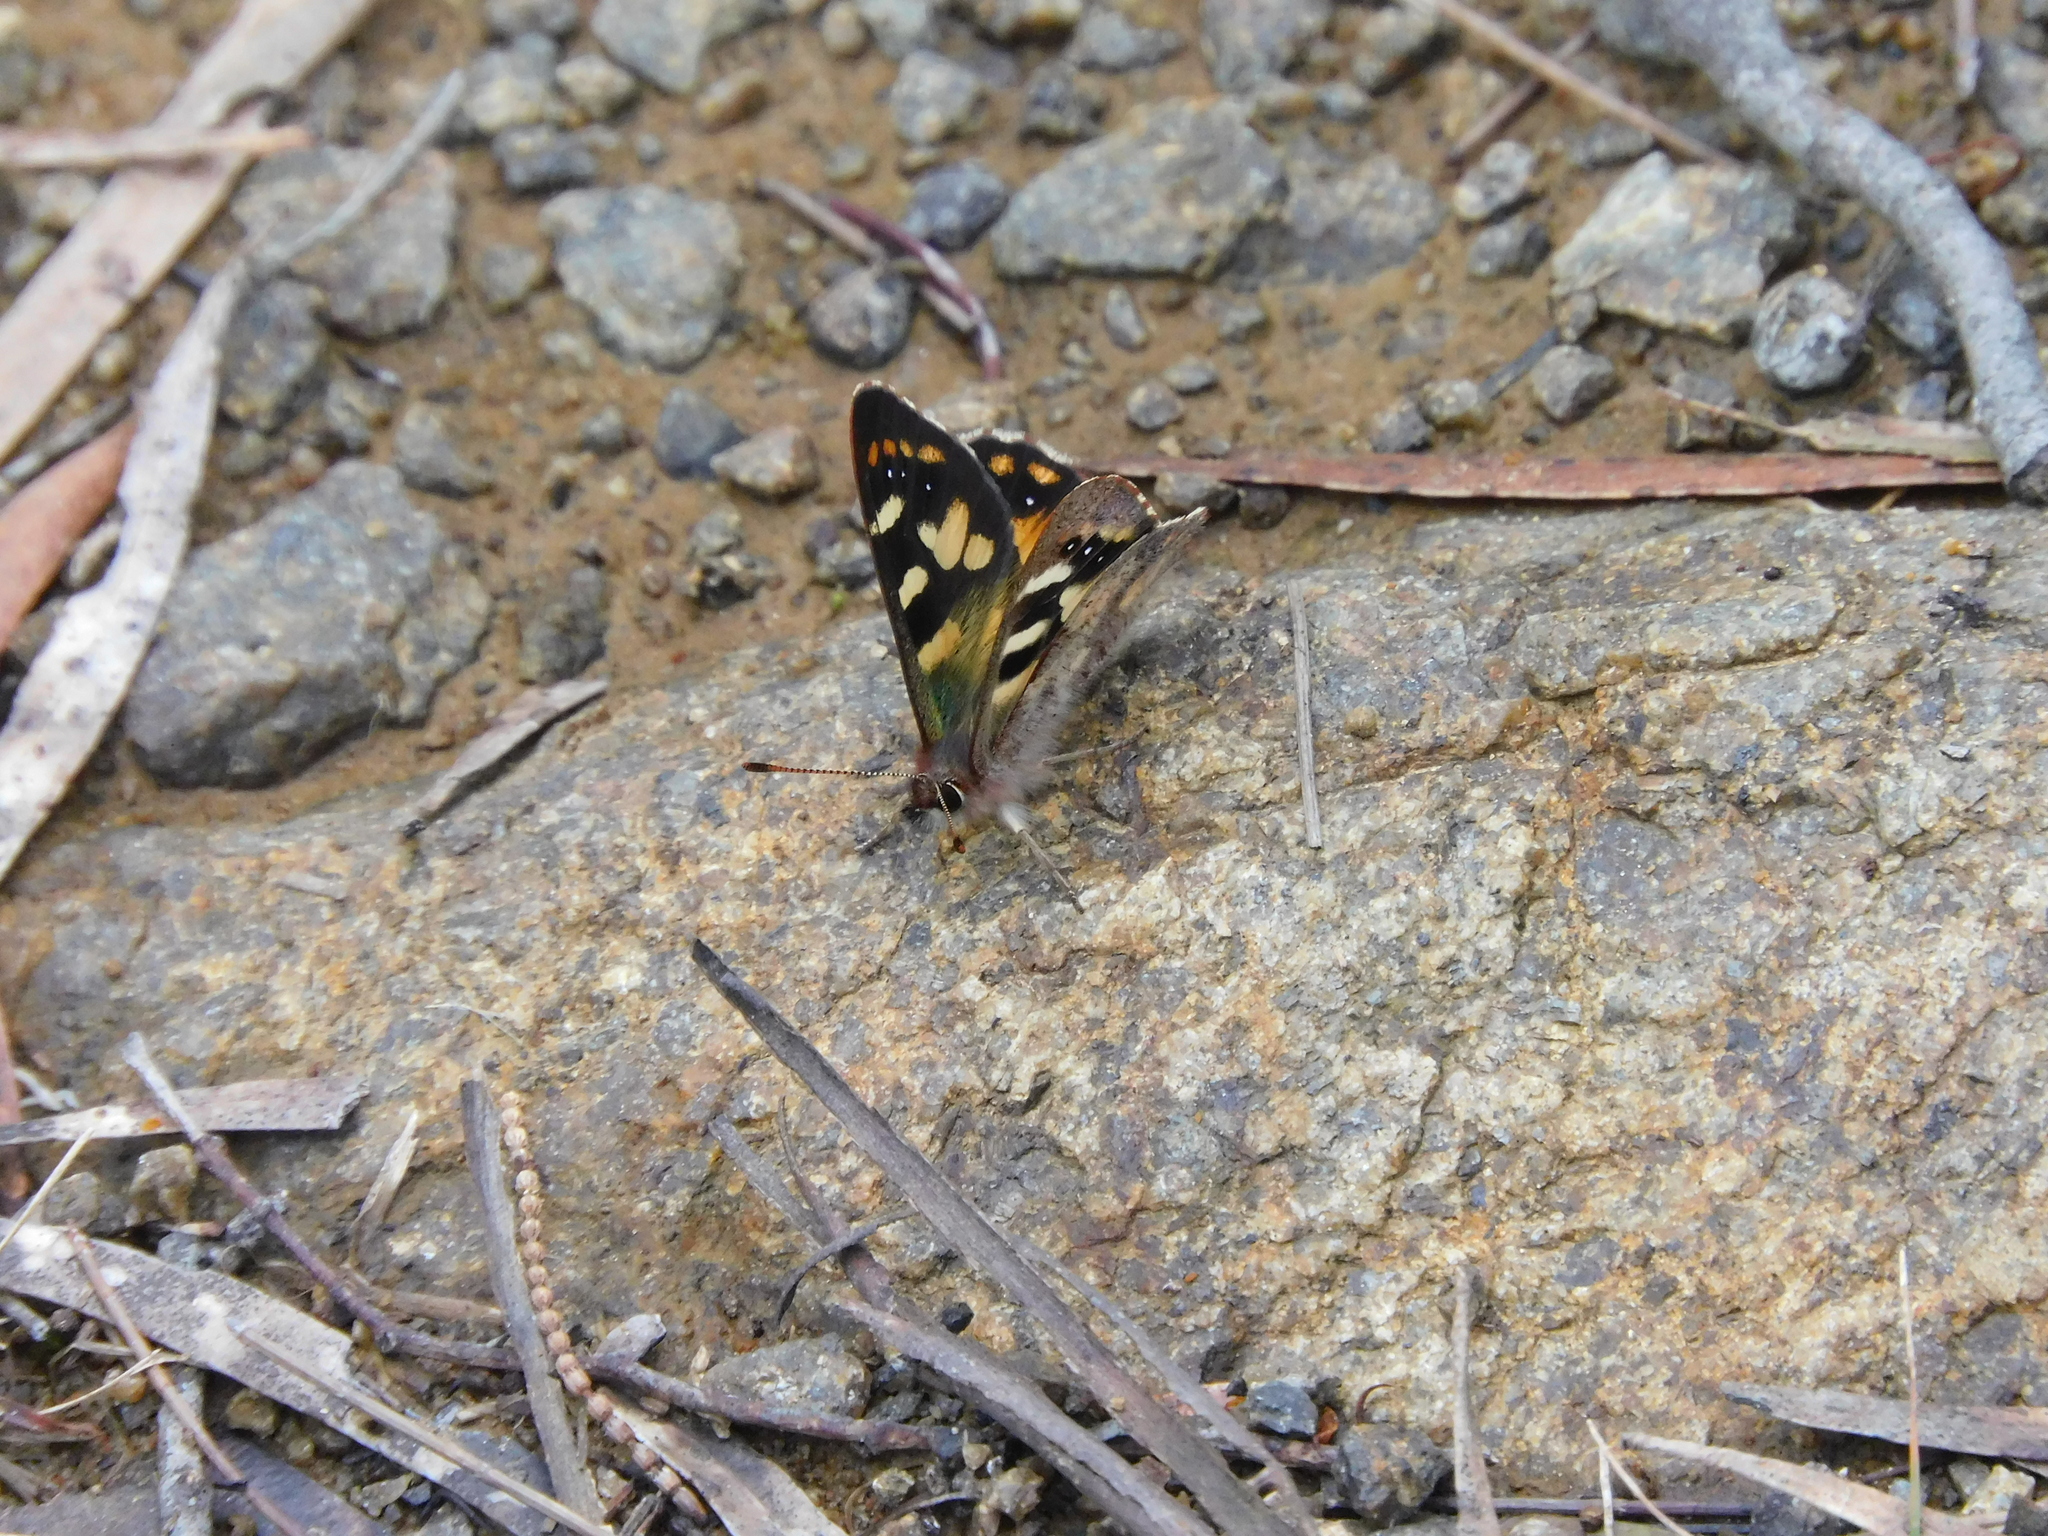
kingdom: Animalia
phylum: Arthropoda
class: Insecta
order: Lepidoptera
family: Nymphalidae
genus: Argynnina
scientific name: Argynnina hobartia
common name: Hobart brown
